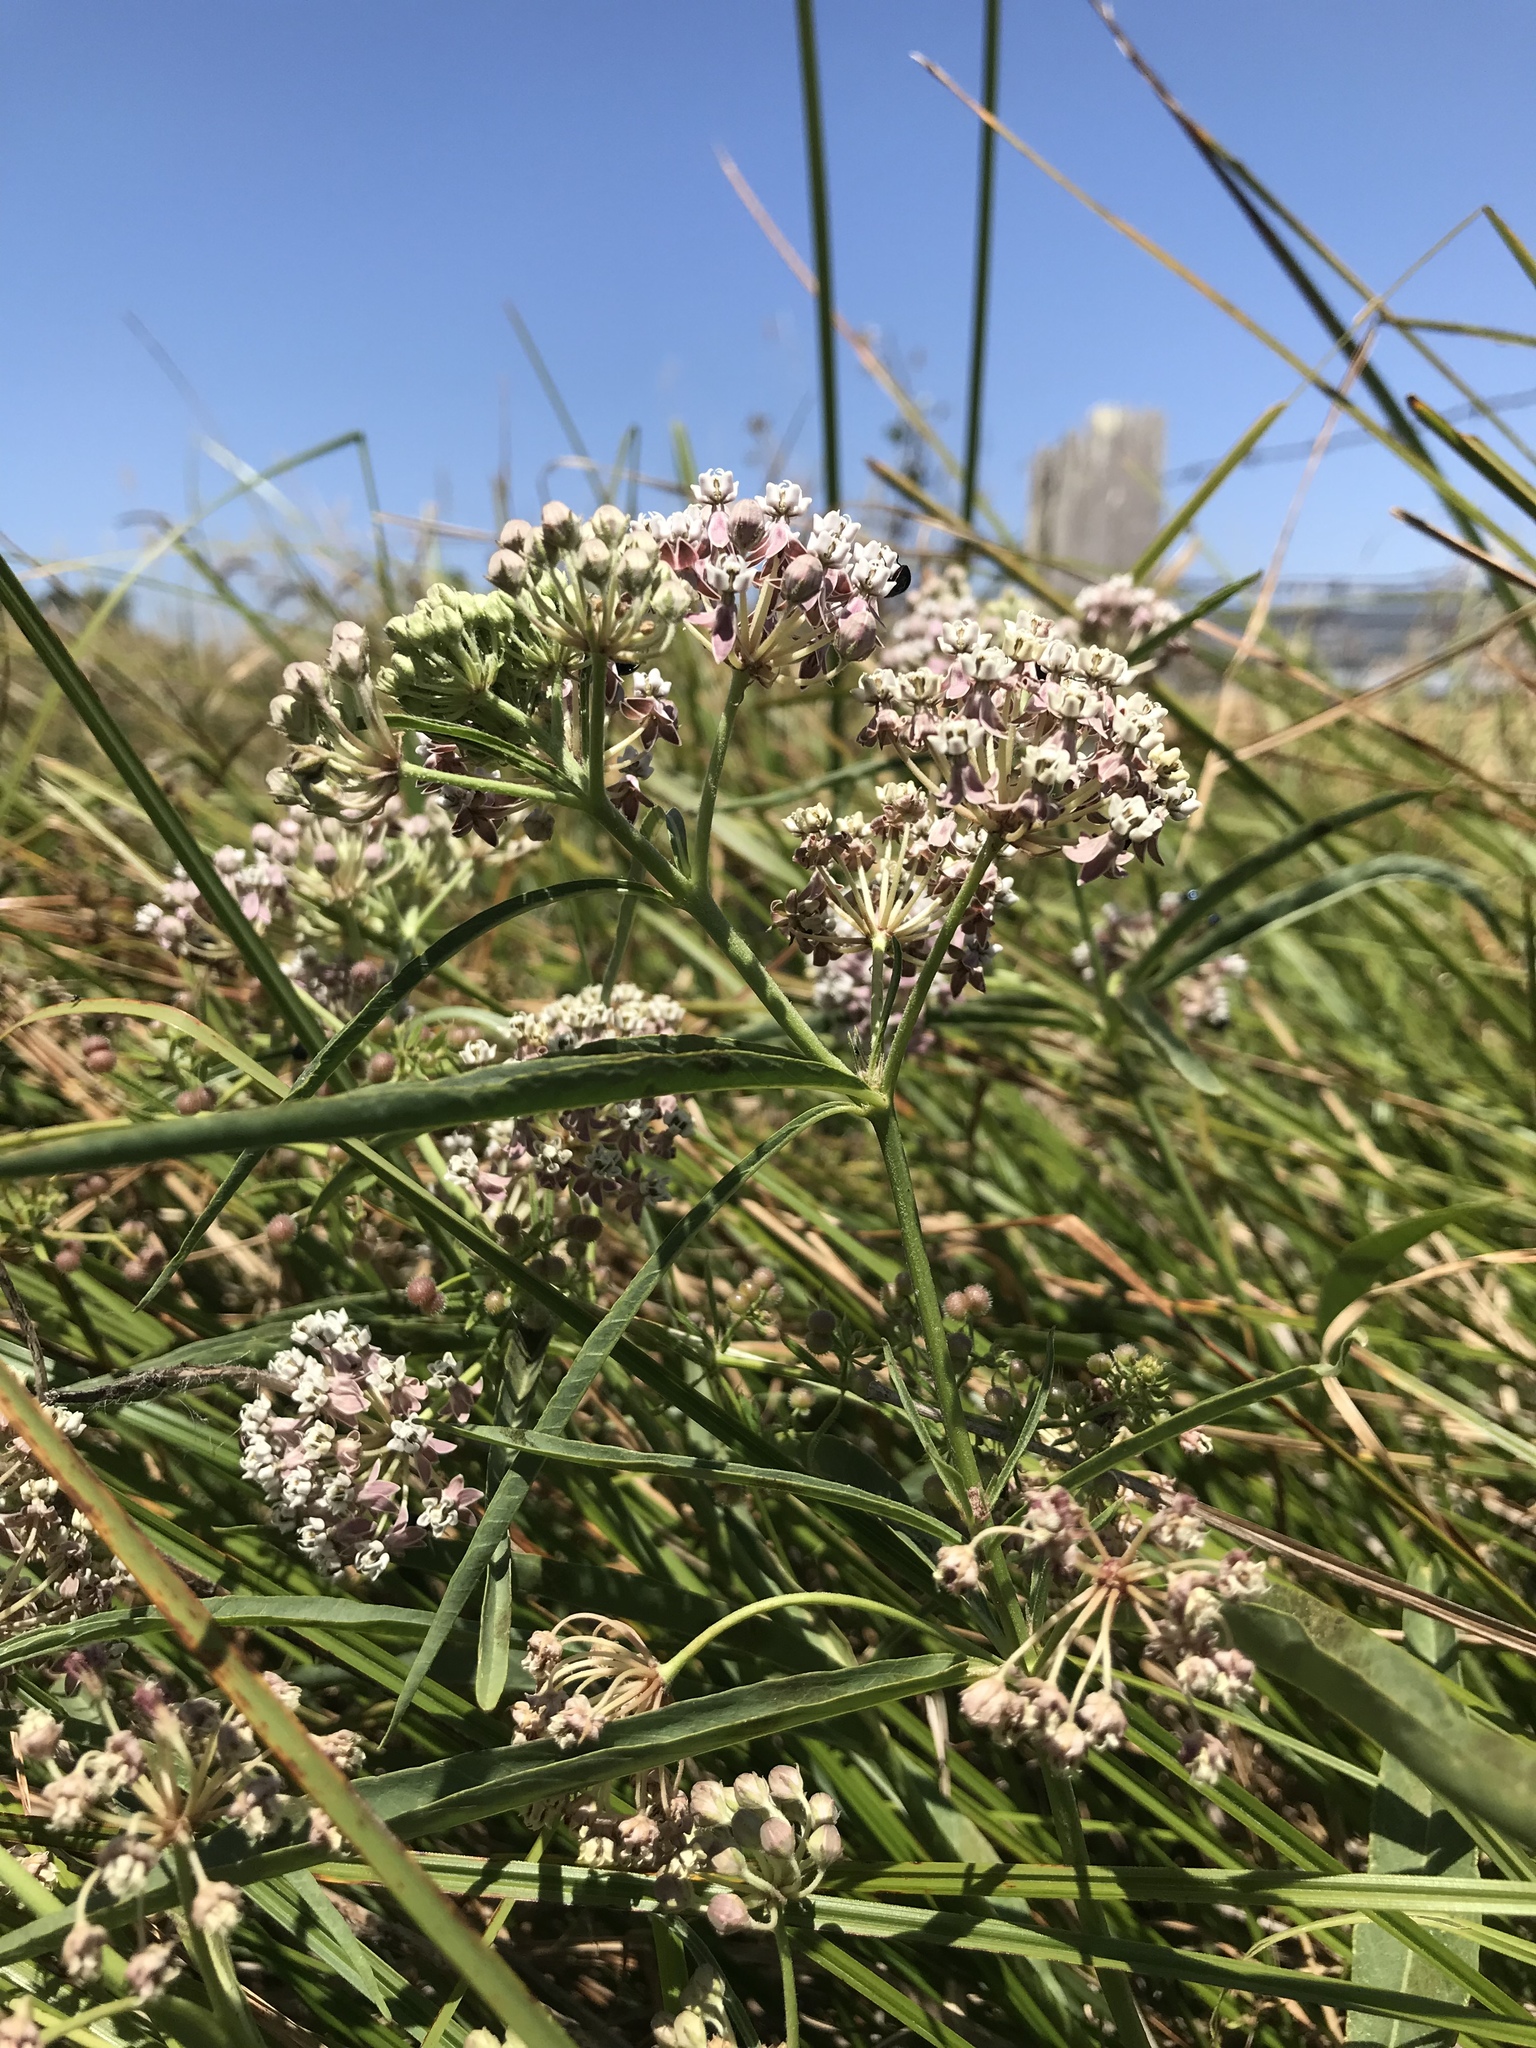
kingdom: Plantae
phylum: Tracheophyta
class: Magnoliopsida
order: Gentianales
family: Apocynaceae
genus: Asclepias
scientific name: Asclepias fascicularis
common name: Mexican milkweed
